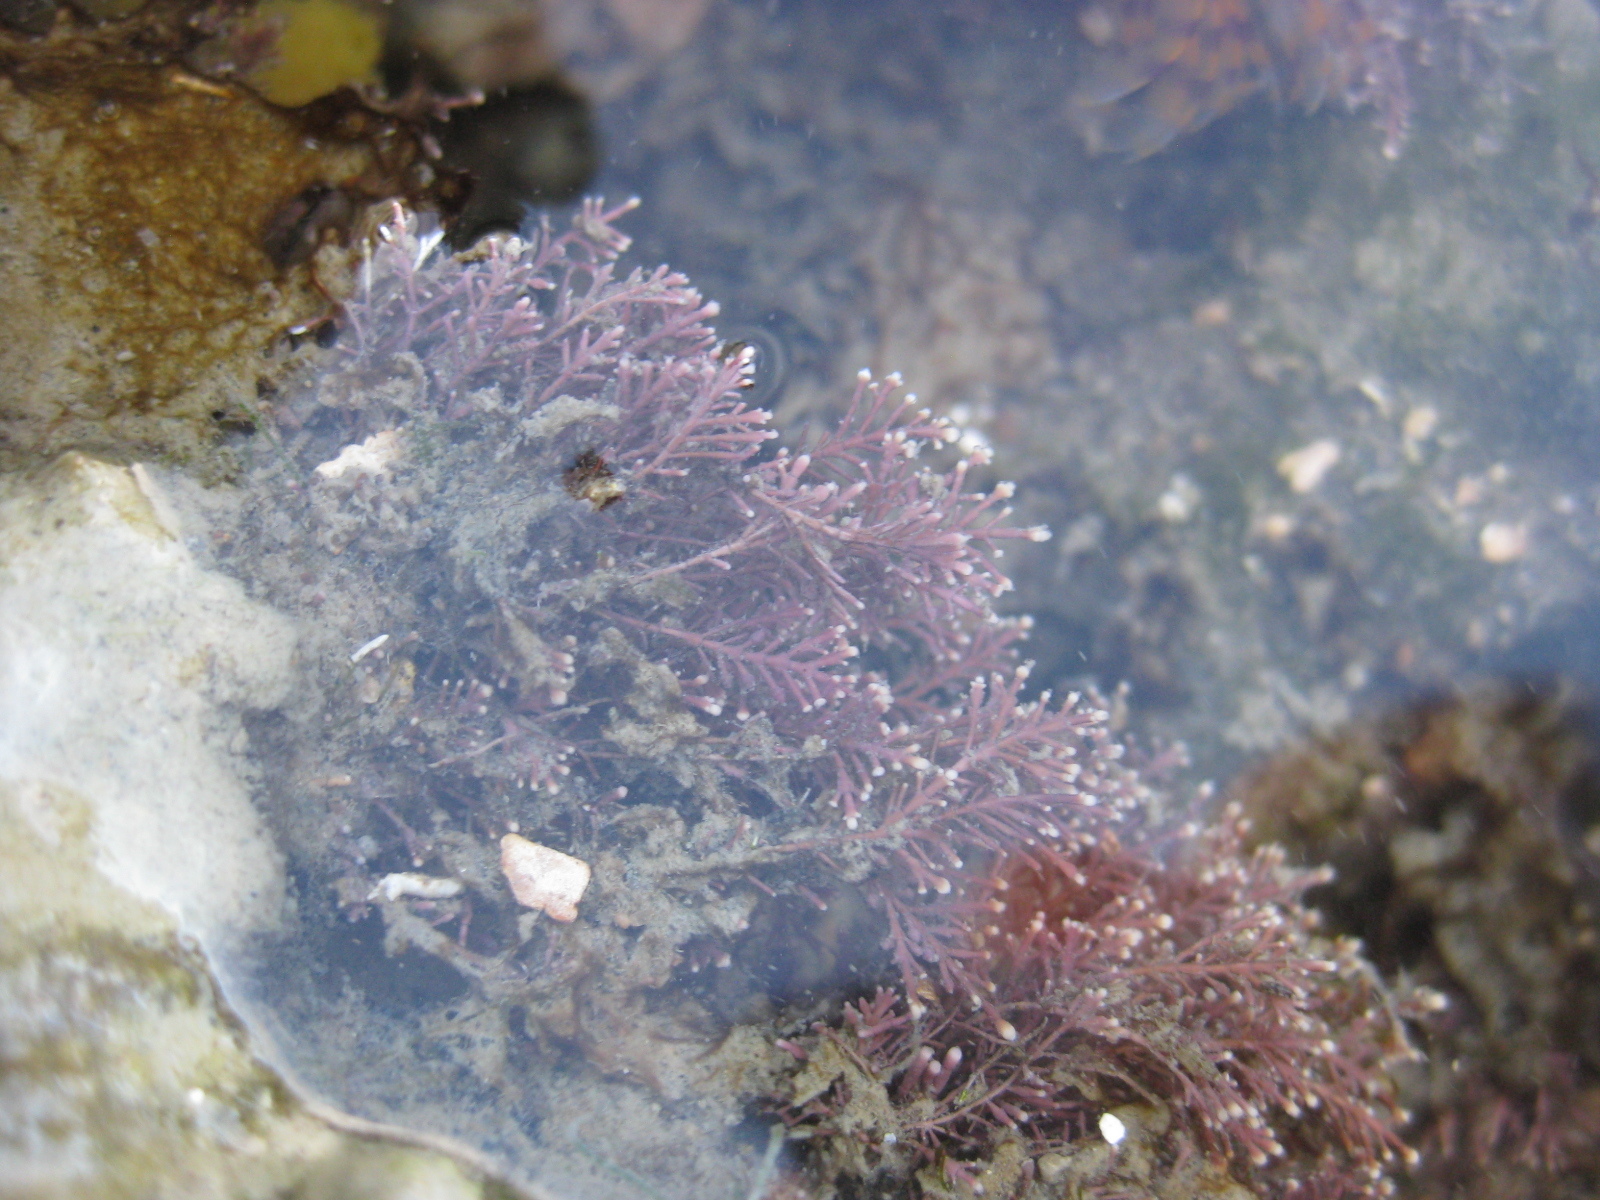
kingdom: Plantae
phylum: Rhodophyta
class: Florideophyceae
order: Corallinales
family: Corallinaceae
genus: Corallina
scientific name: Corallina officinalis
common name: Coral weed
